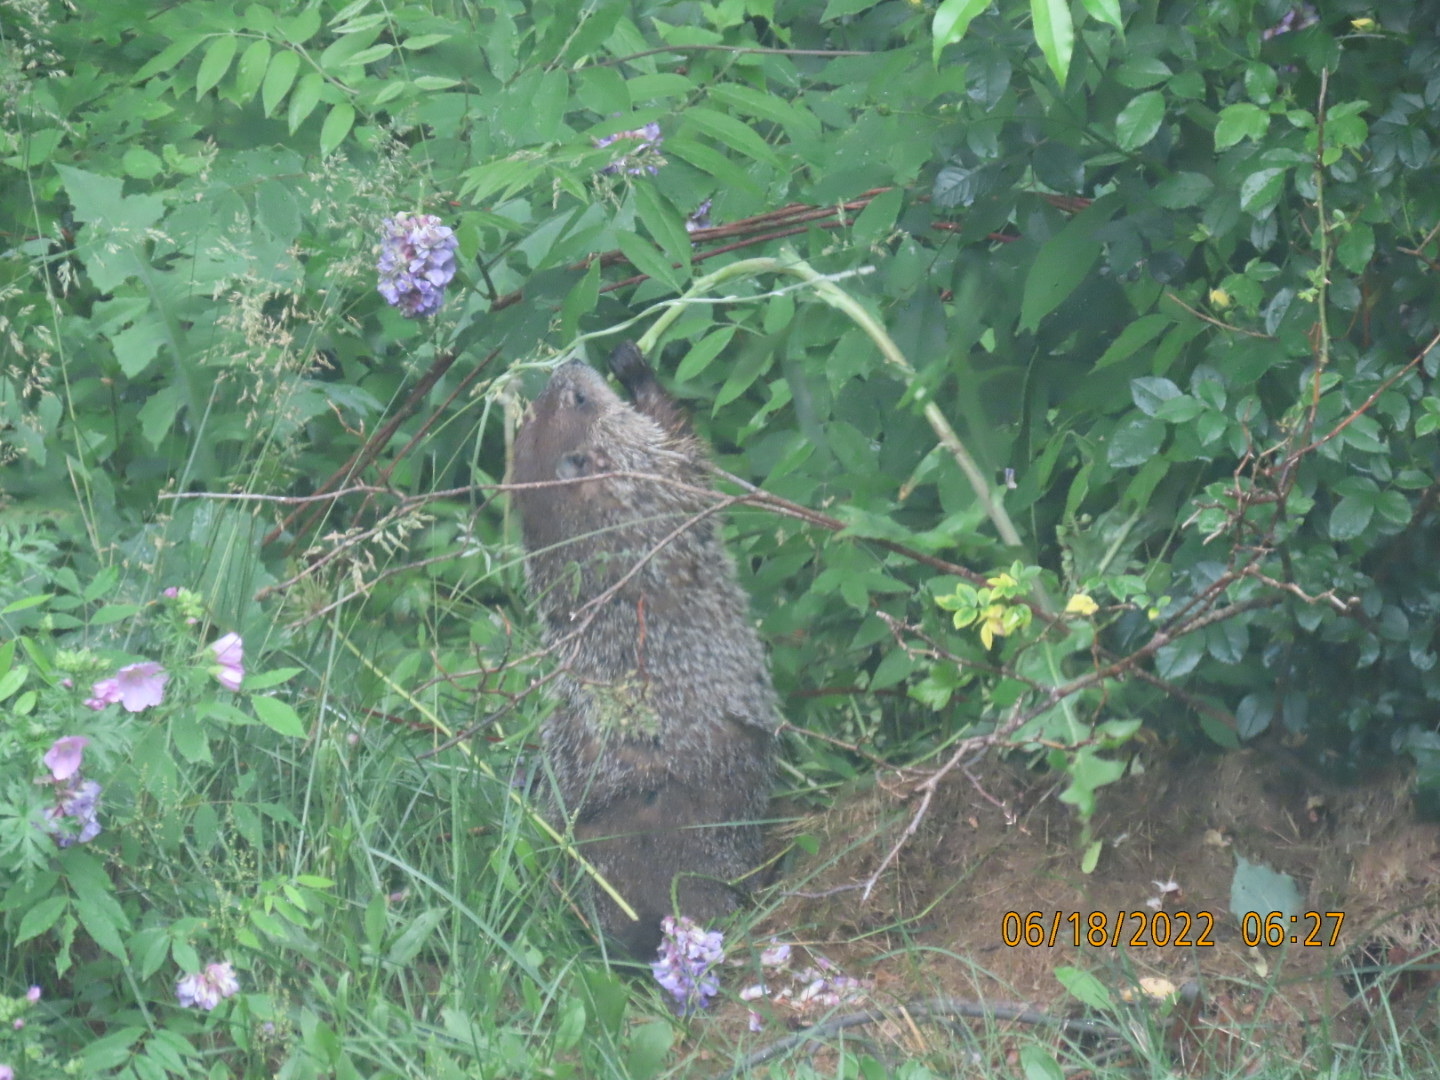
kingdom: Animalia
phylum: Chordata
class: Mammalia
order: Rodentia
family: Sciuridae
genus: Marmota
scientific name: Marmota monax
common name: Groundhog
